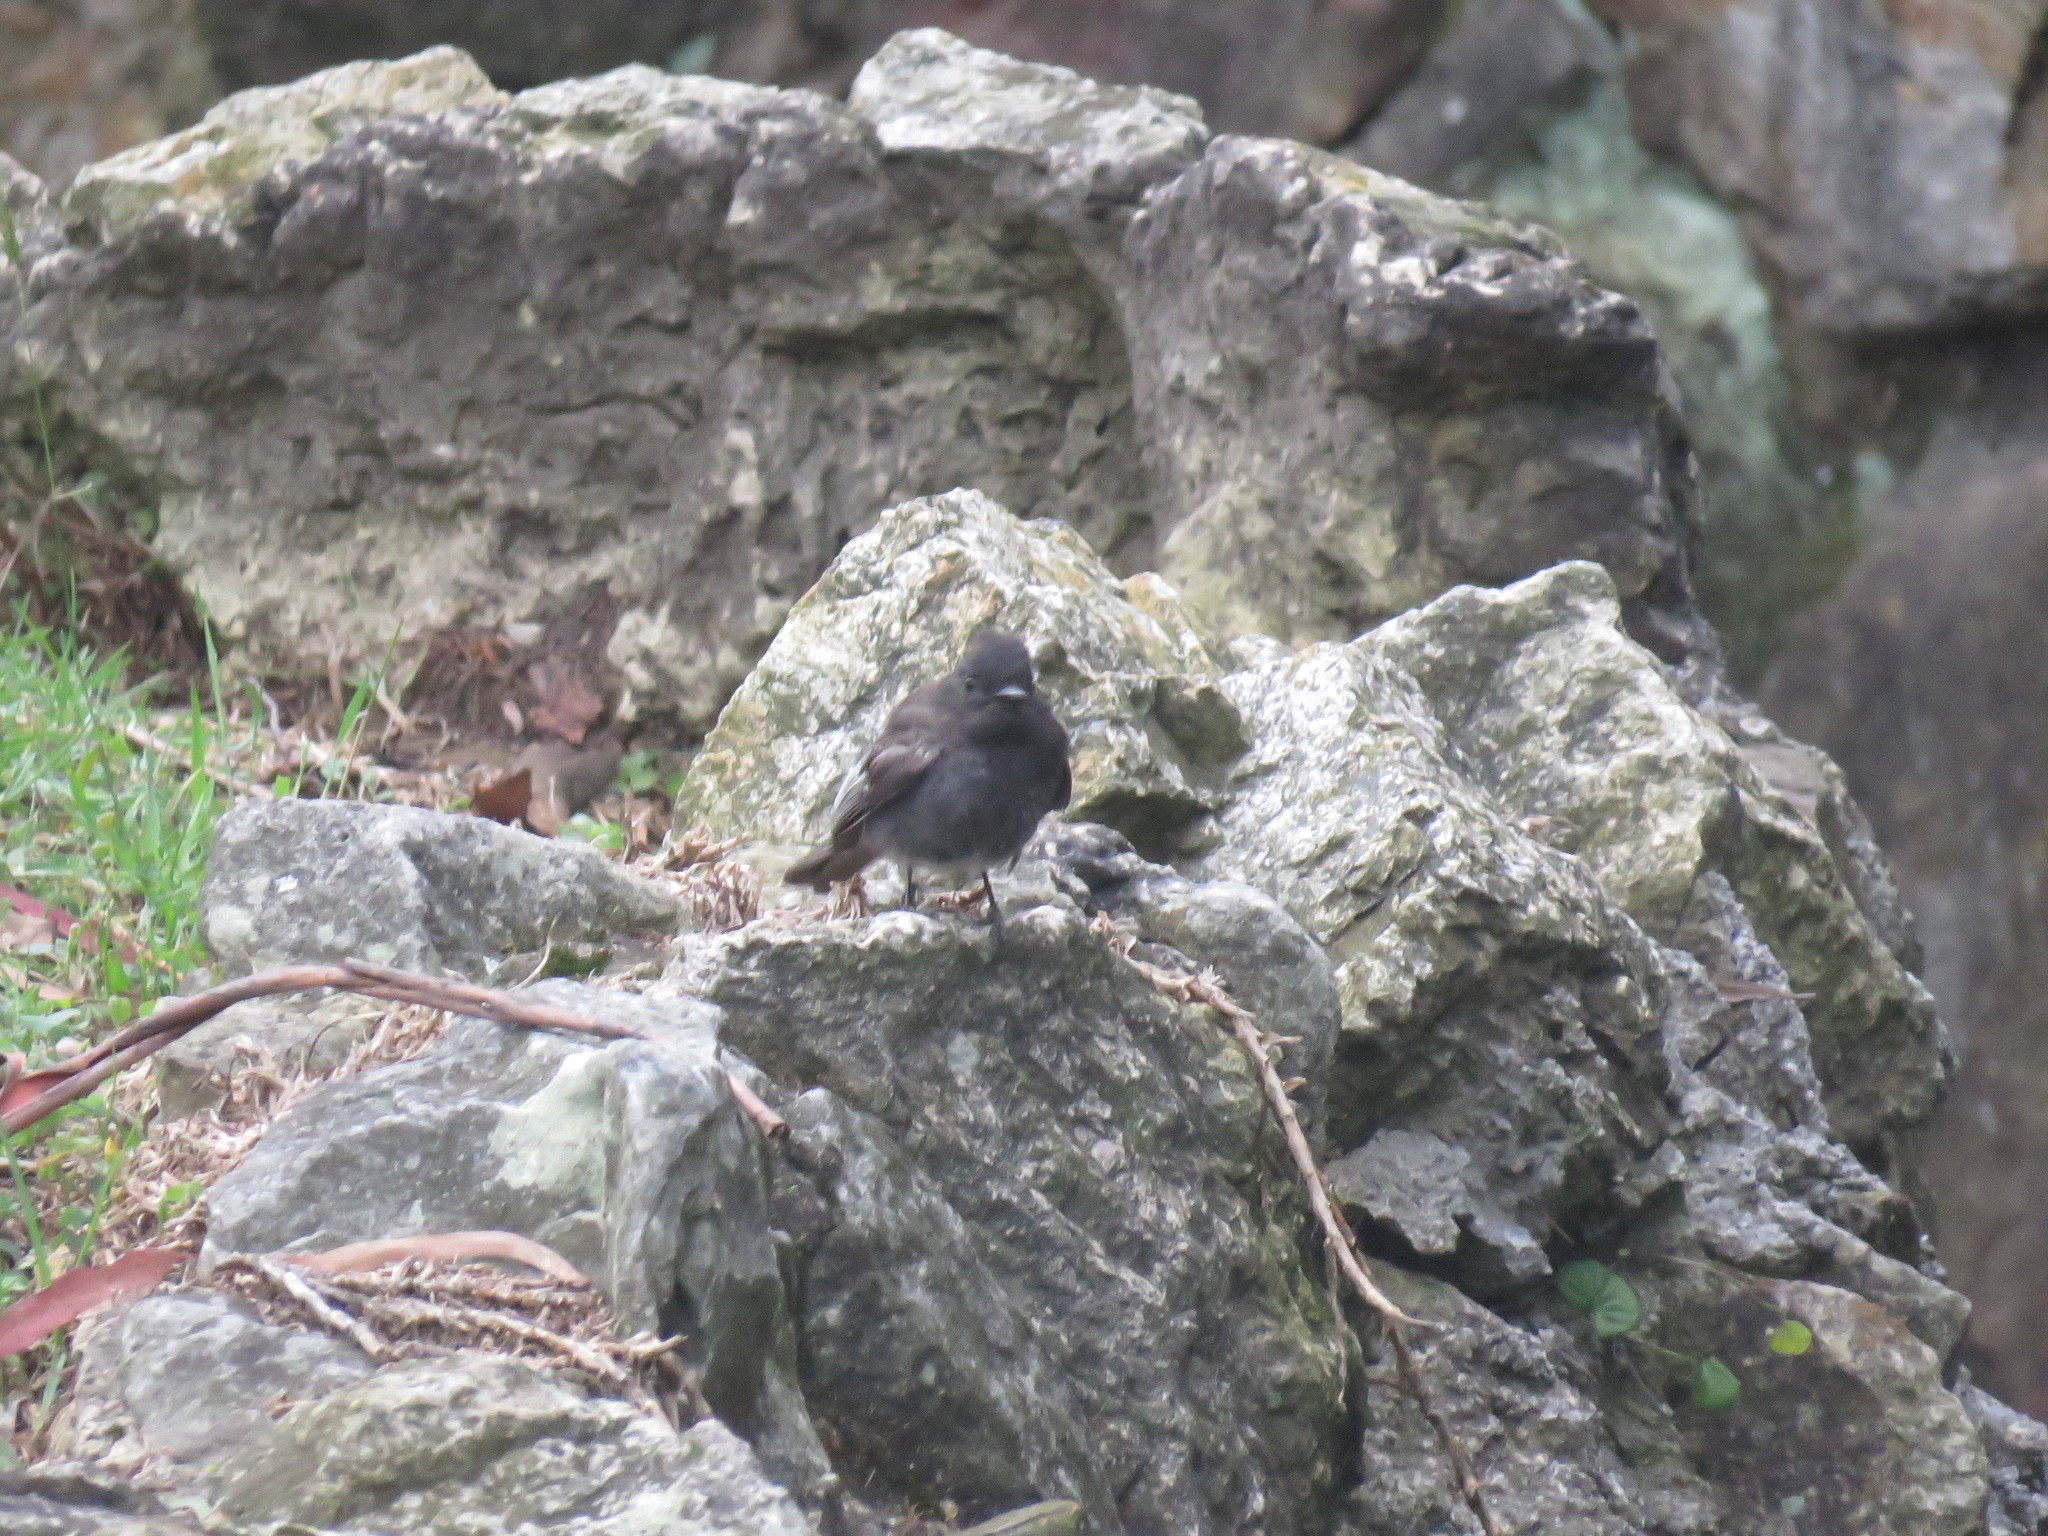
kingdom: Animalia
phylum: Chordata
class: Aves
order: Passeriformes
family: Tyrannidae
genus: Sayornis
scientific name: Sayornis nigricans
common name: Black phoebe
